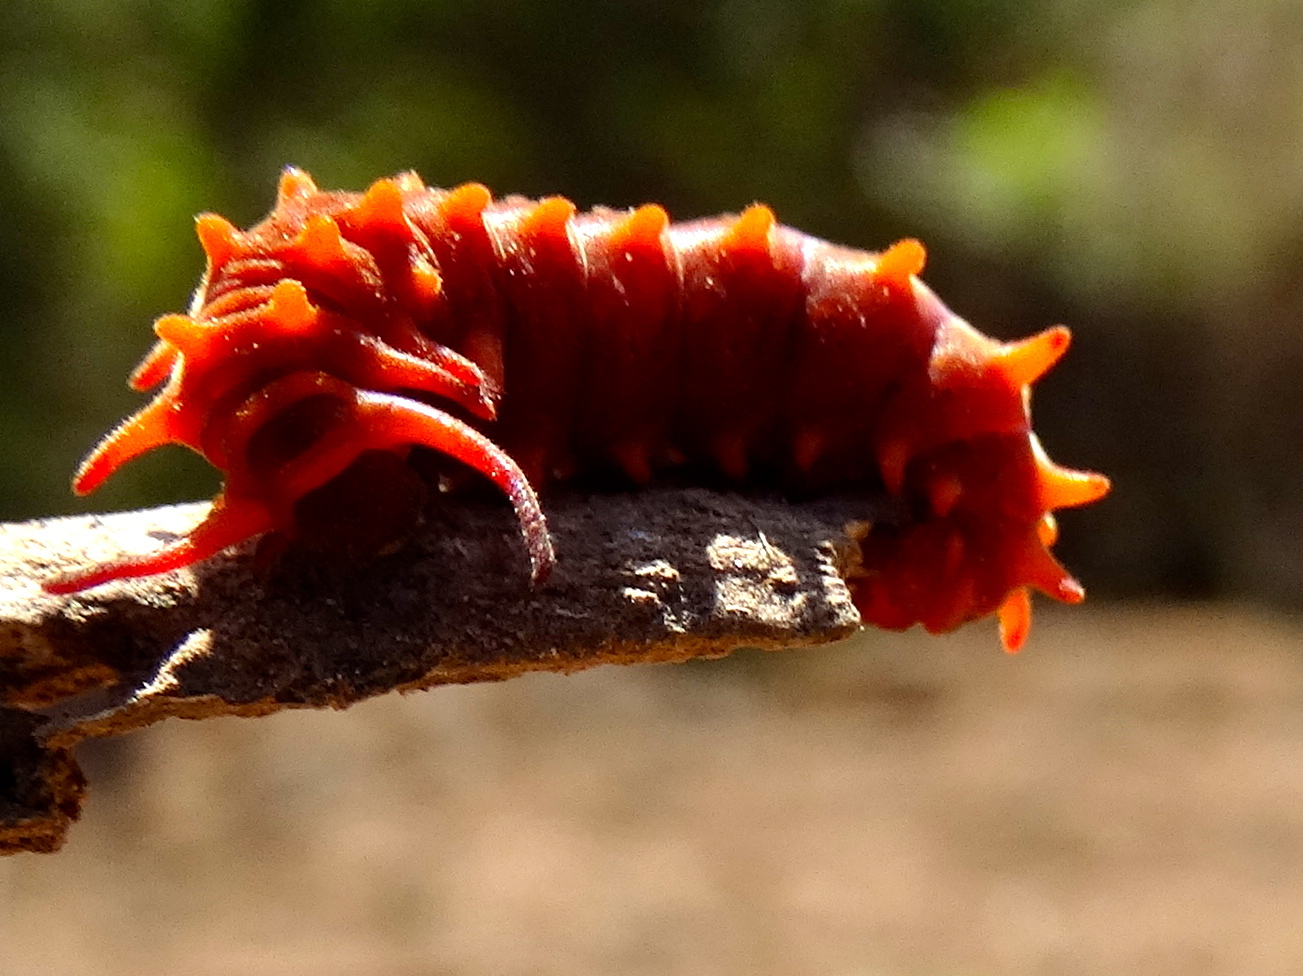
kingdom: Animalia
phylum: Arthropoda
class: Insecta
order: Lepidoptera
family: Papilionidae
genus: Battus
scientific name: Battus philenor
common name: Pipevine swallowtail
